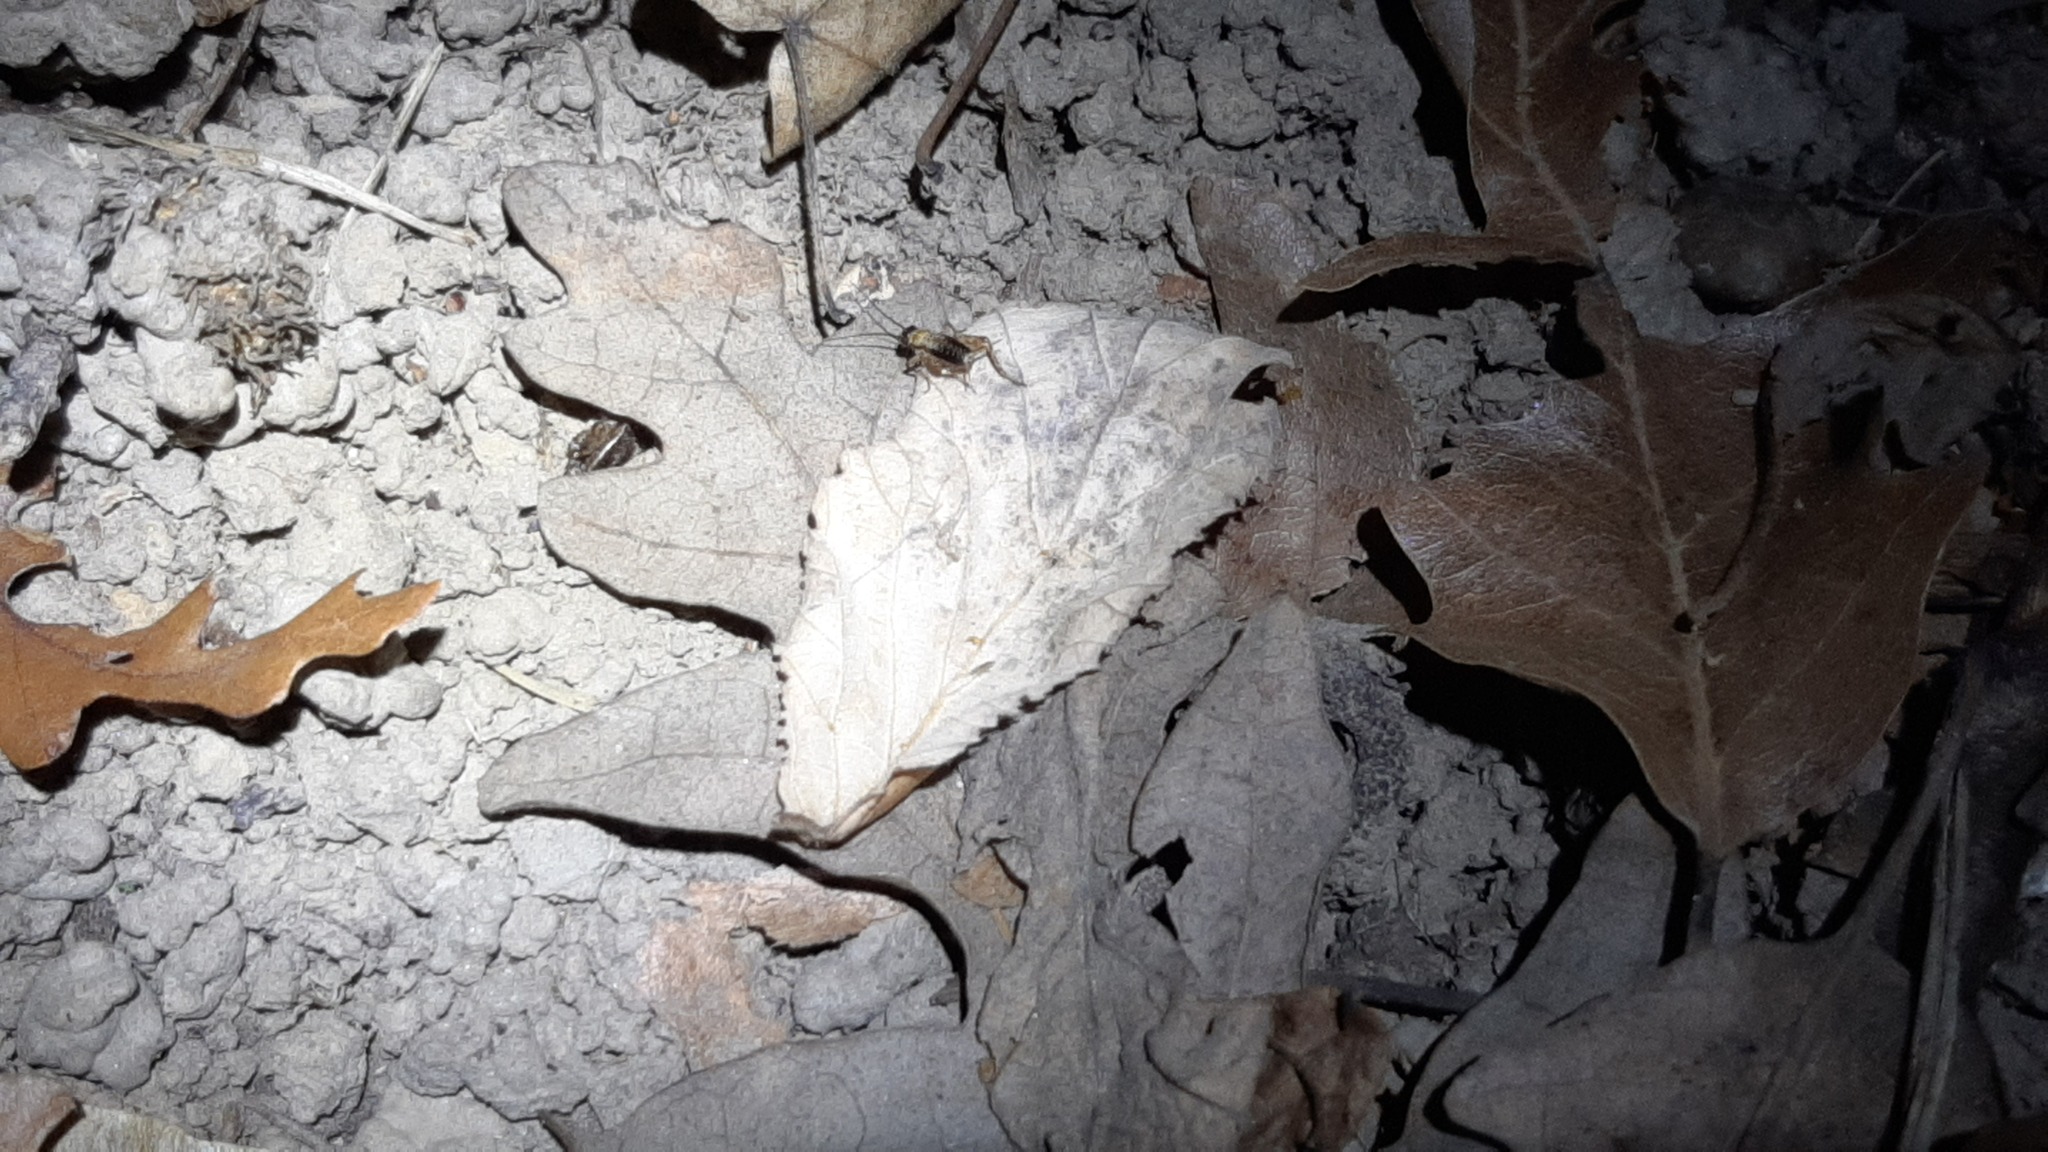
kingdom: Animalia
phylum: Arthropoda
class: Insecta
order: Orthoptera
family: Trigonidiidae
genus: Nemobius
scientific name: Nemobius sylvestris
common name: Wood-cricket
